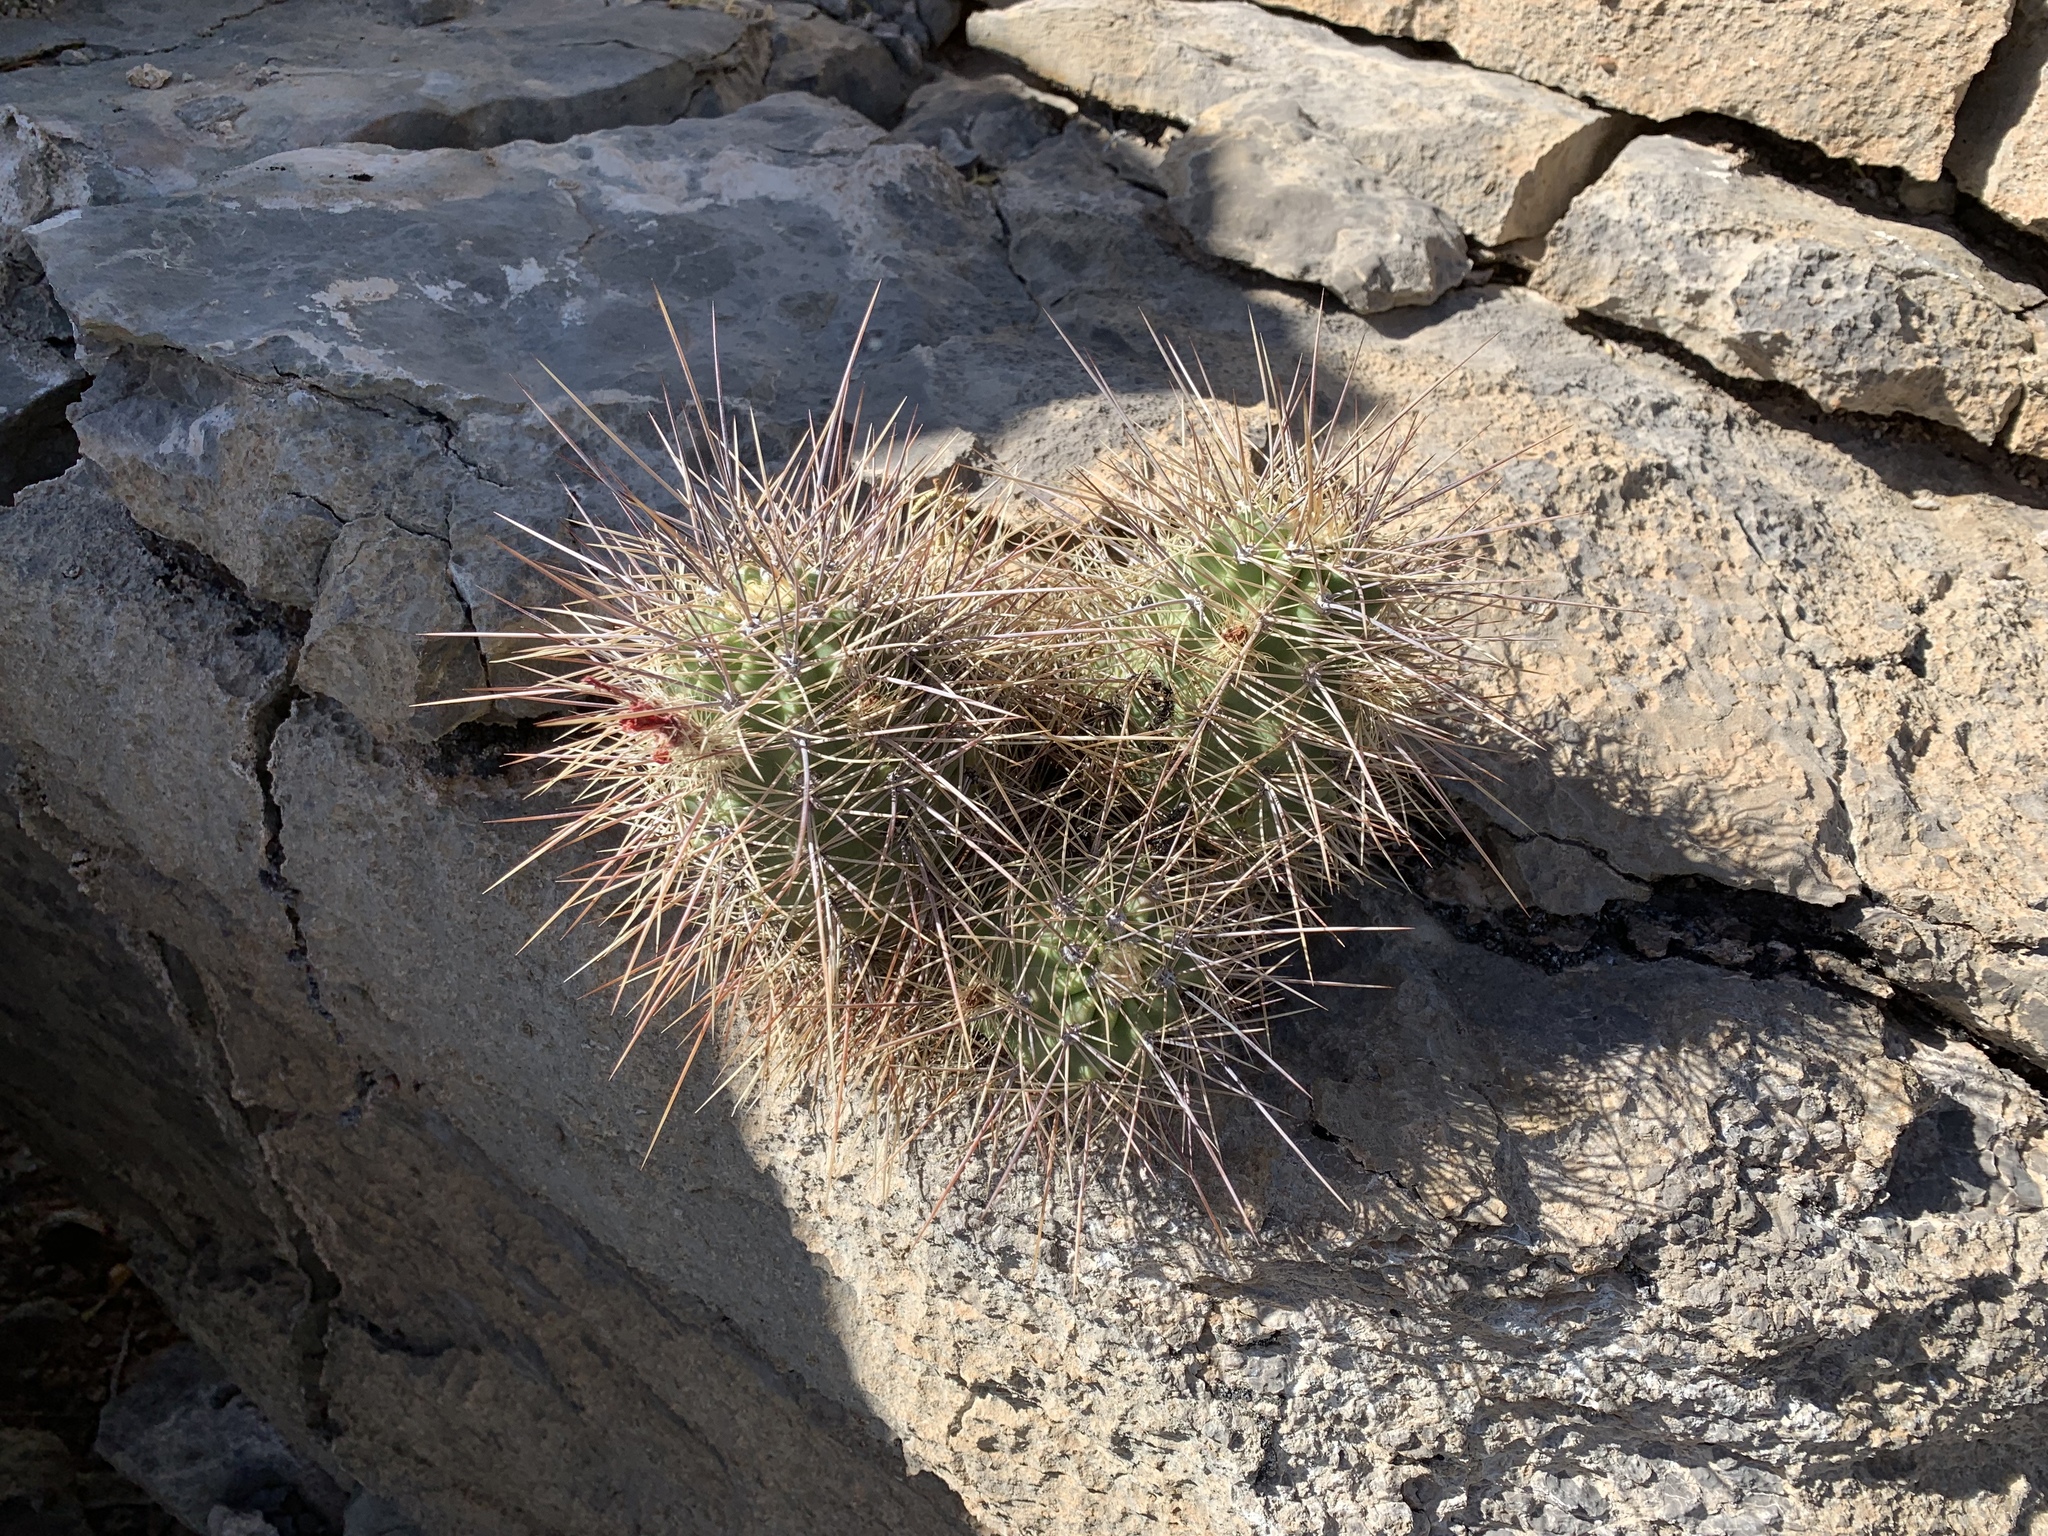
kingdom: Plantae
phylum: Tracheophyta
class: Magnoliopsida
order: Caryophyllales
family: Cactaceae
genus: Echinocereus
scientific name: Echinocereus coccineus
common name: Scarlet hedgehog cactus
